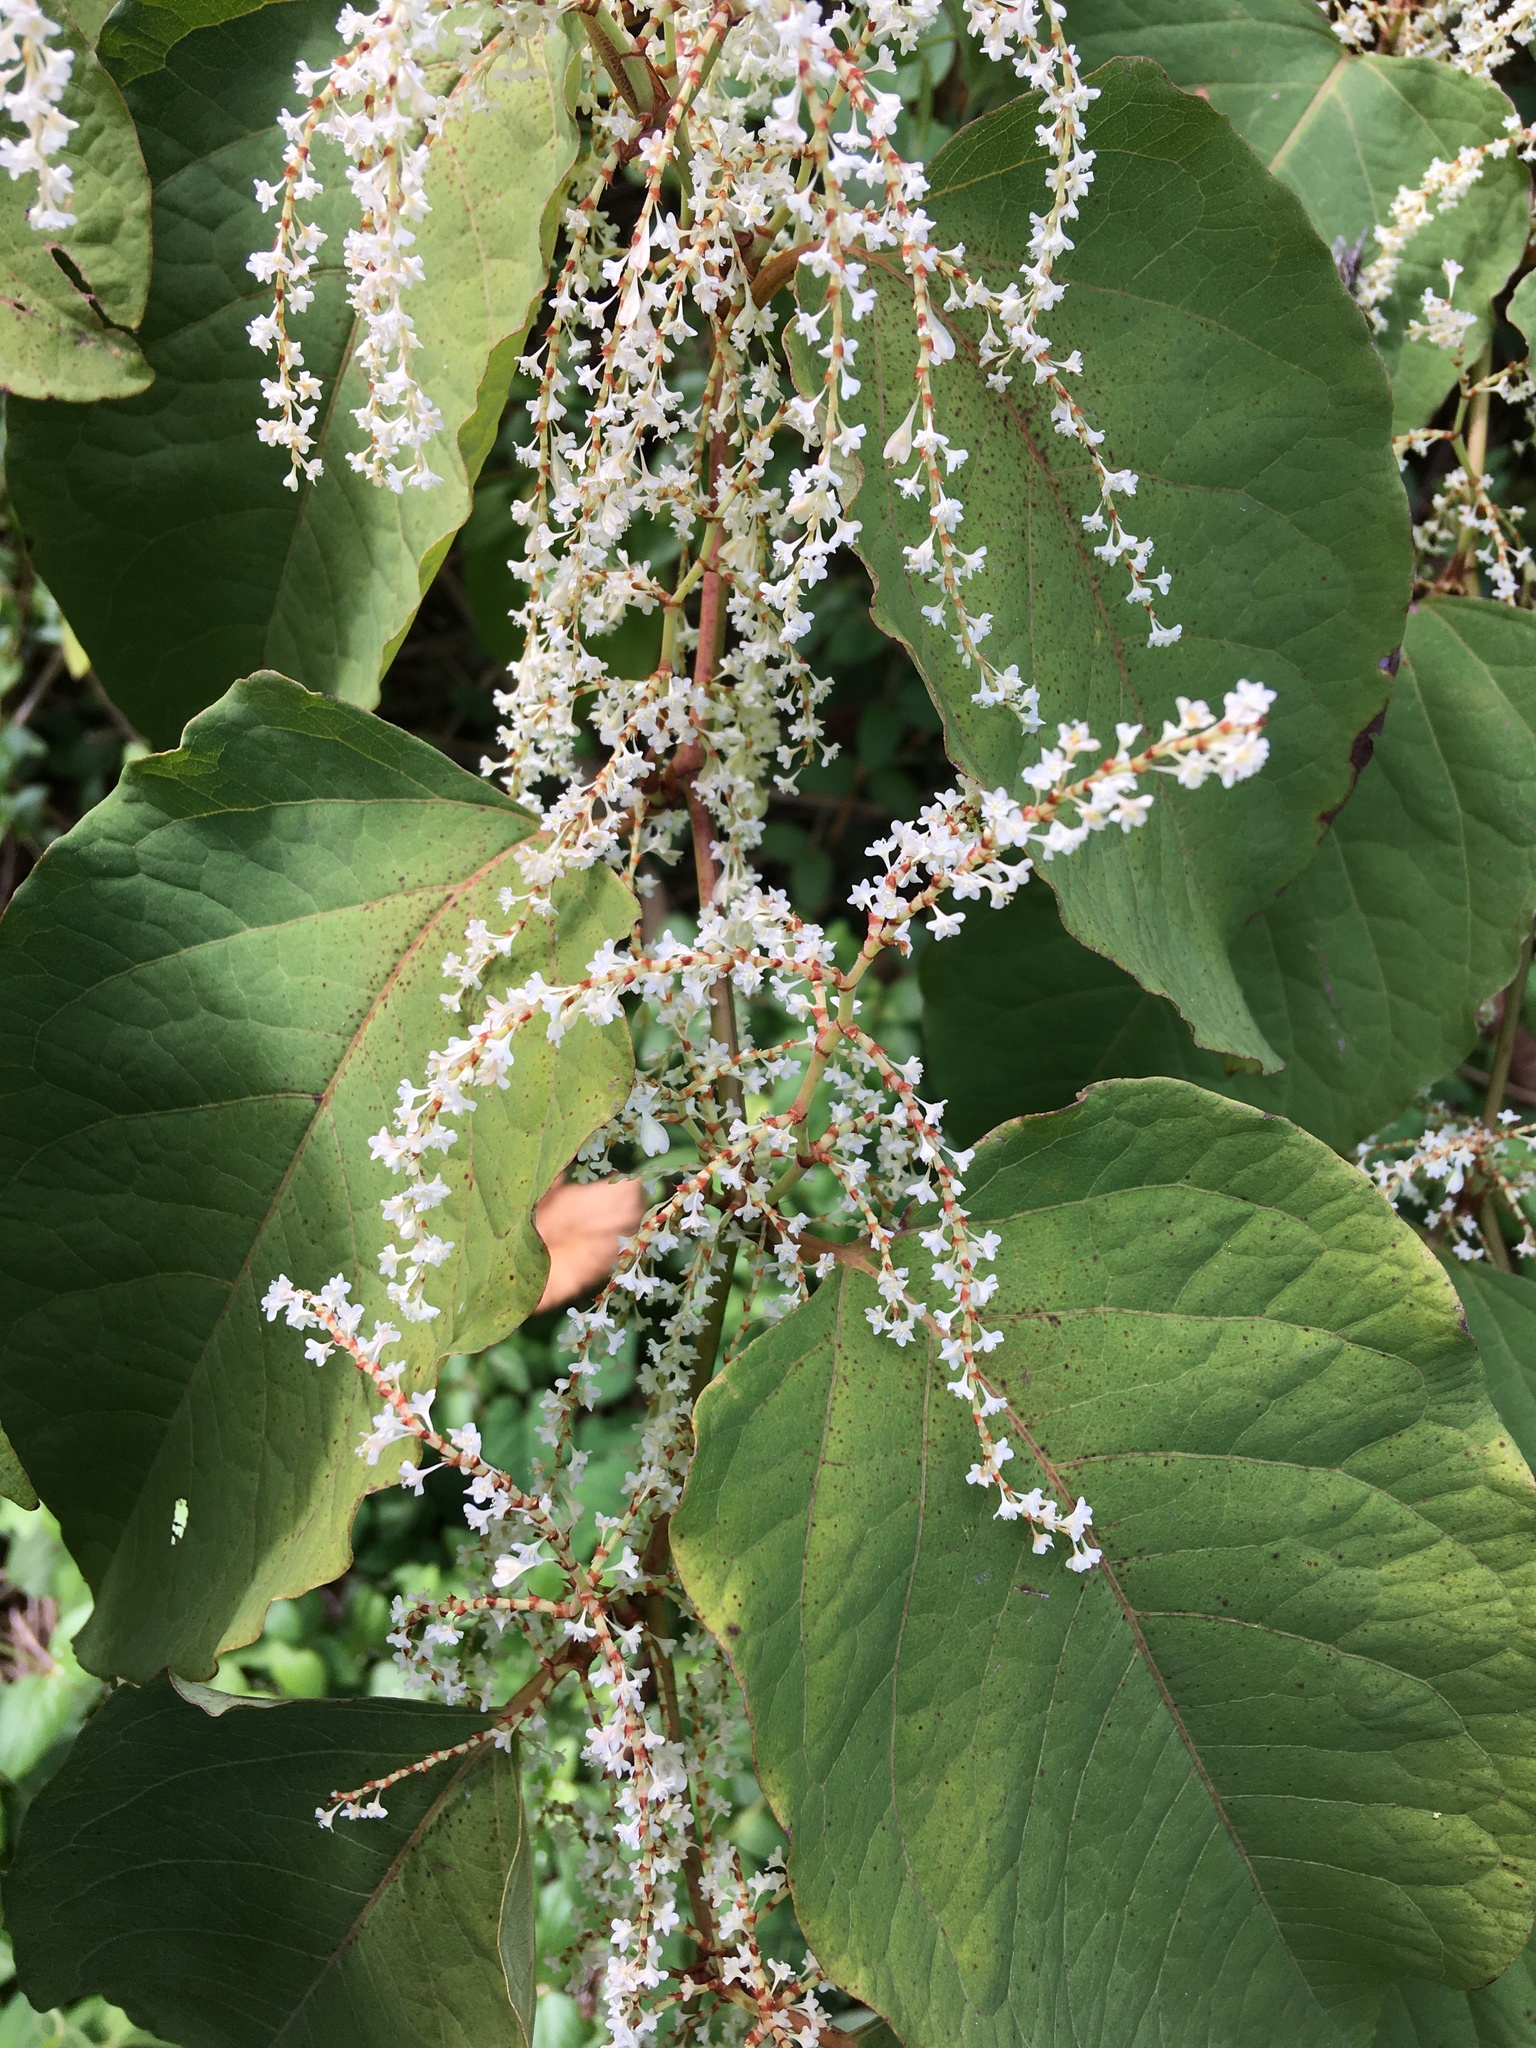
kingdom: Plantae
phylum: Tracheophyta
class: Magnoliopsida
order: Caryophyllales
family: Polygonaceae
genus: Reynoutria
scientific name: Reynoutria japonica
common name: Japanese knotweed
